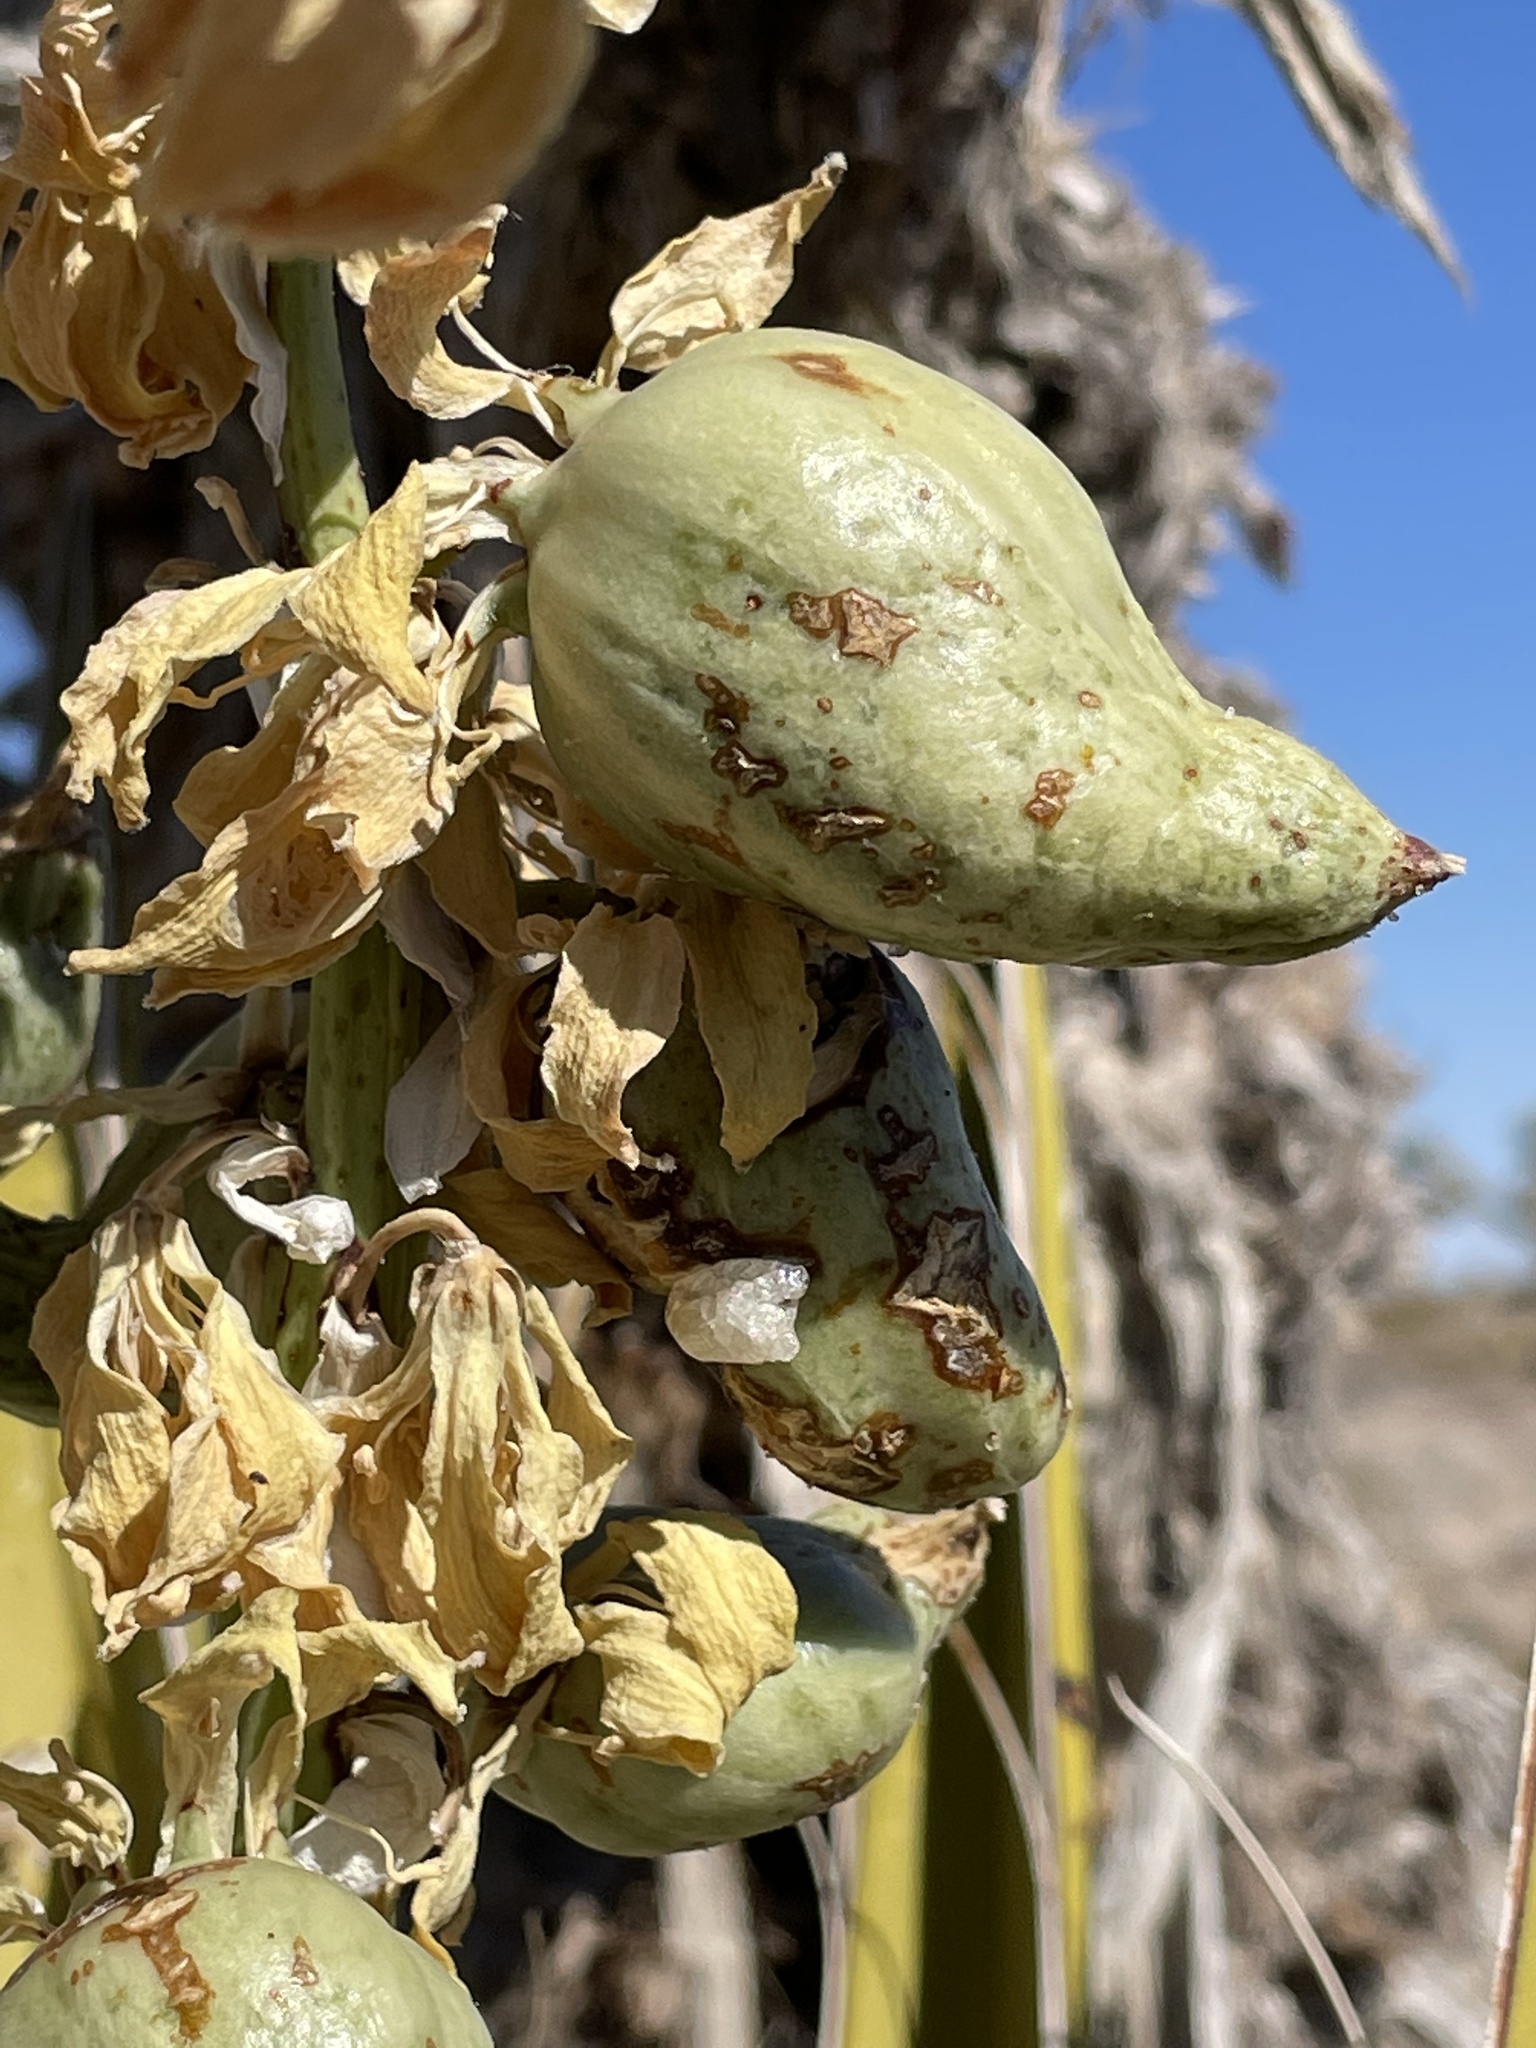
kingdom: Plantae
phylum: Tracheophyta
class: Liliopsida
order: Asparagales
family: Asparagaceae
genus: Yucca
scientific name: Yucca schidigera
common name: Mojave yucca
